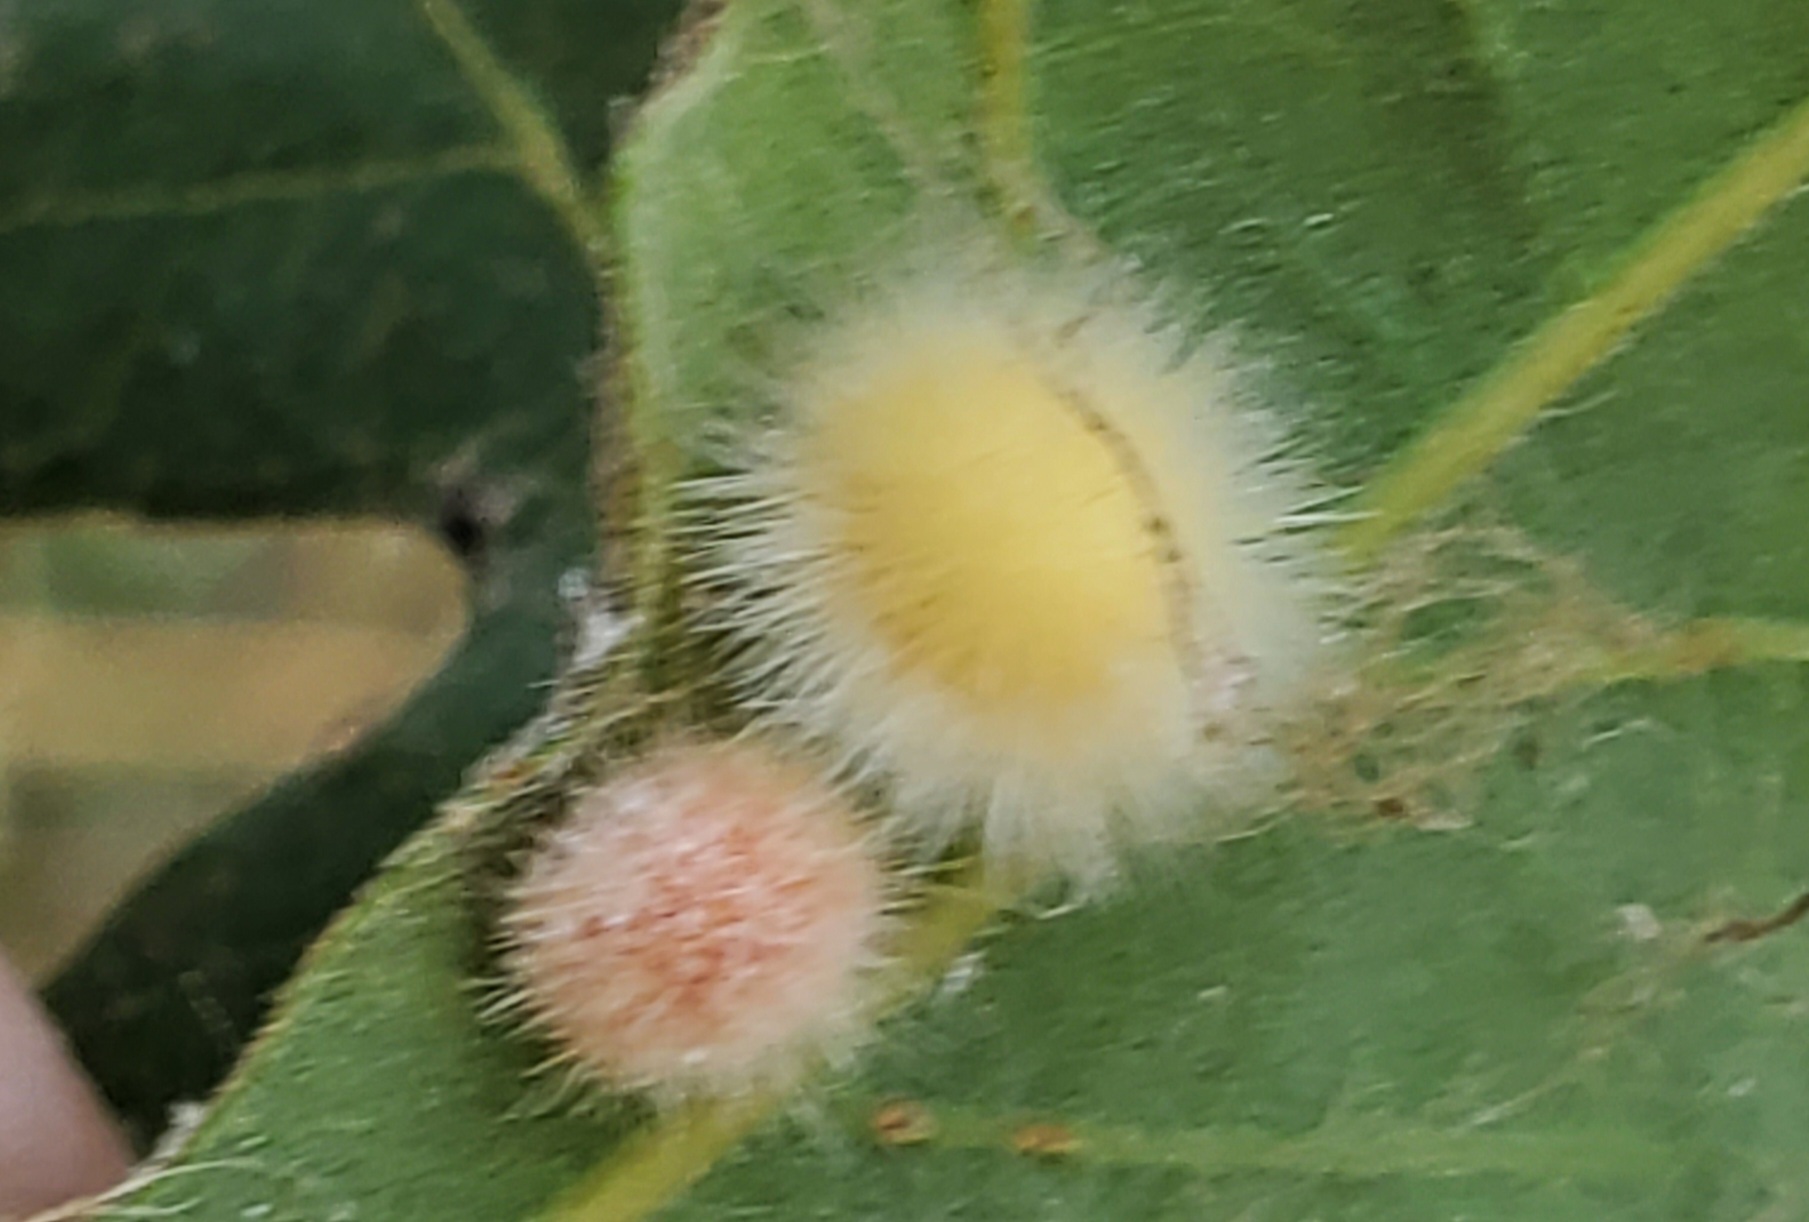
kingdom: Animalia
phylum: Arthropoda
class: Insecta
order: Hymenoptera
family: Cynipidae
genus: Atrusca
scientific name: Atrusca
